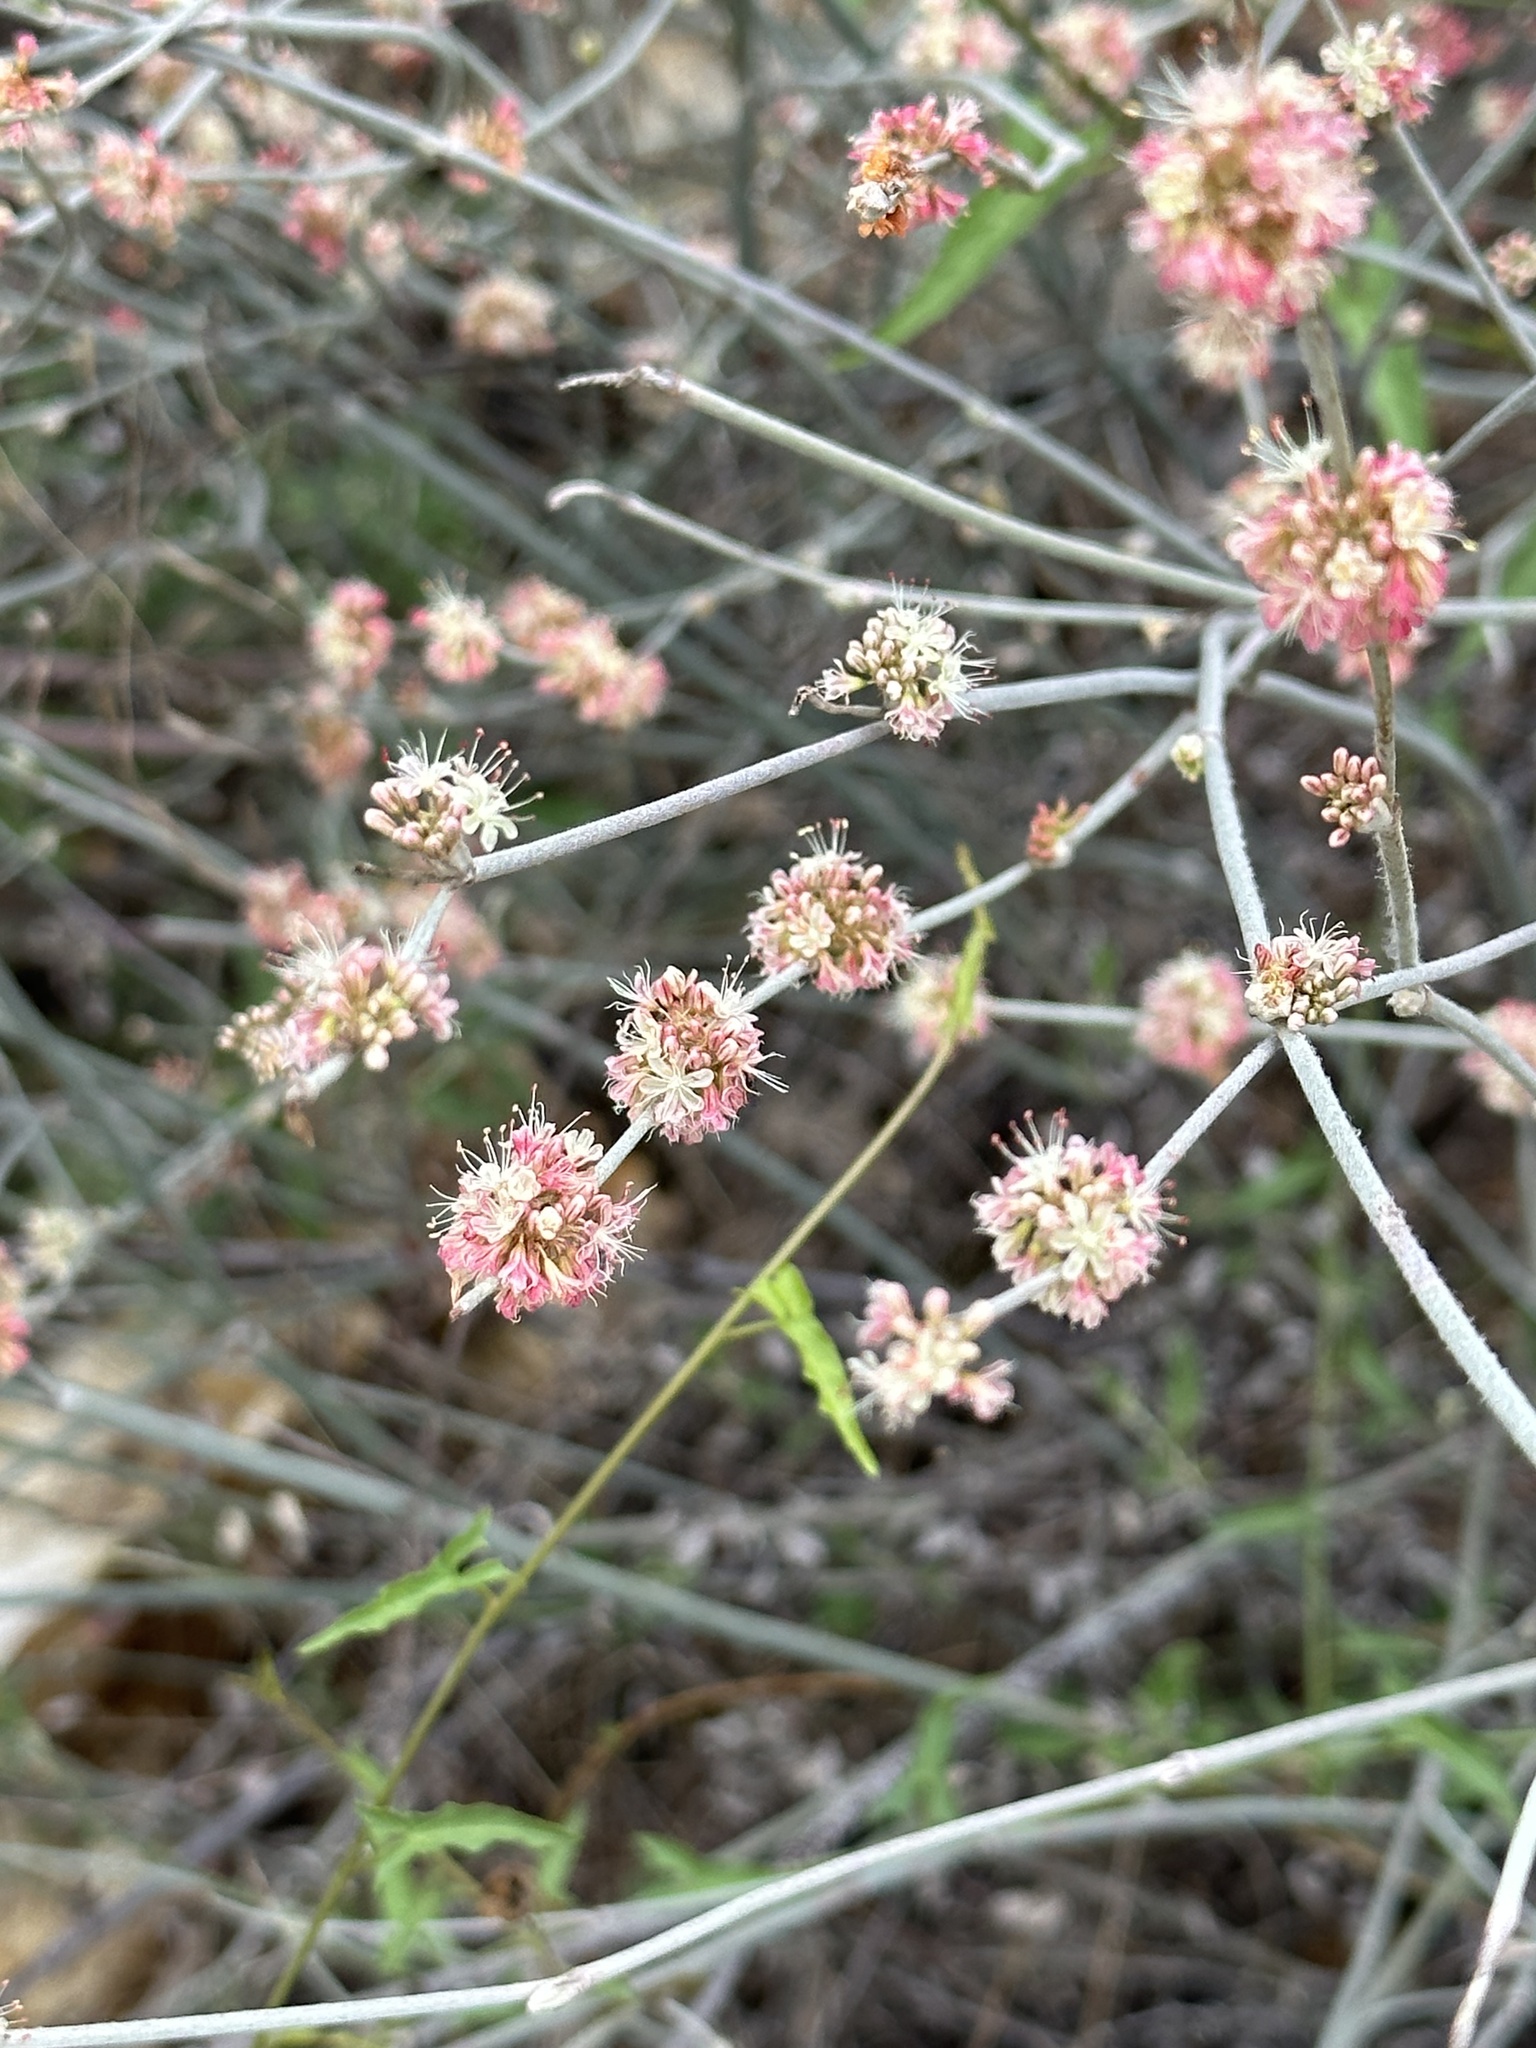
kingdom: Plantae
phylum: Tracheophyta
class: Magnoliopsida
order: Caryophyllales
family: Polygonaceae
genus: Eriogonum
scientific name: Eriogonum elongatum
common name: Long-stem wild buckwheat
